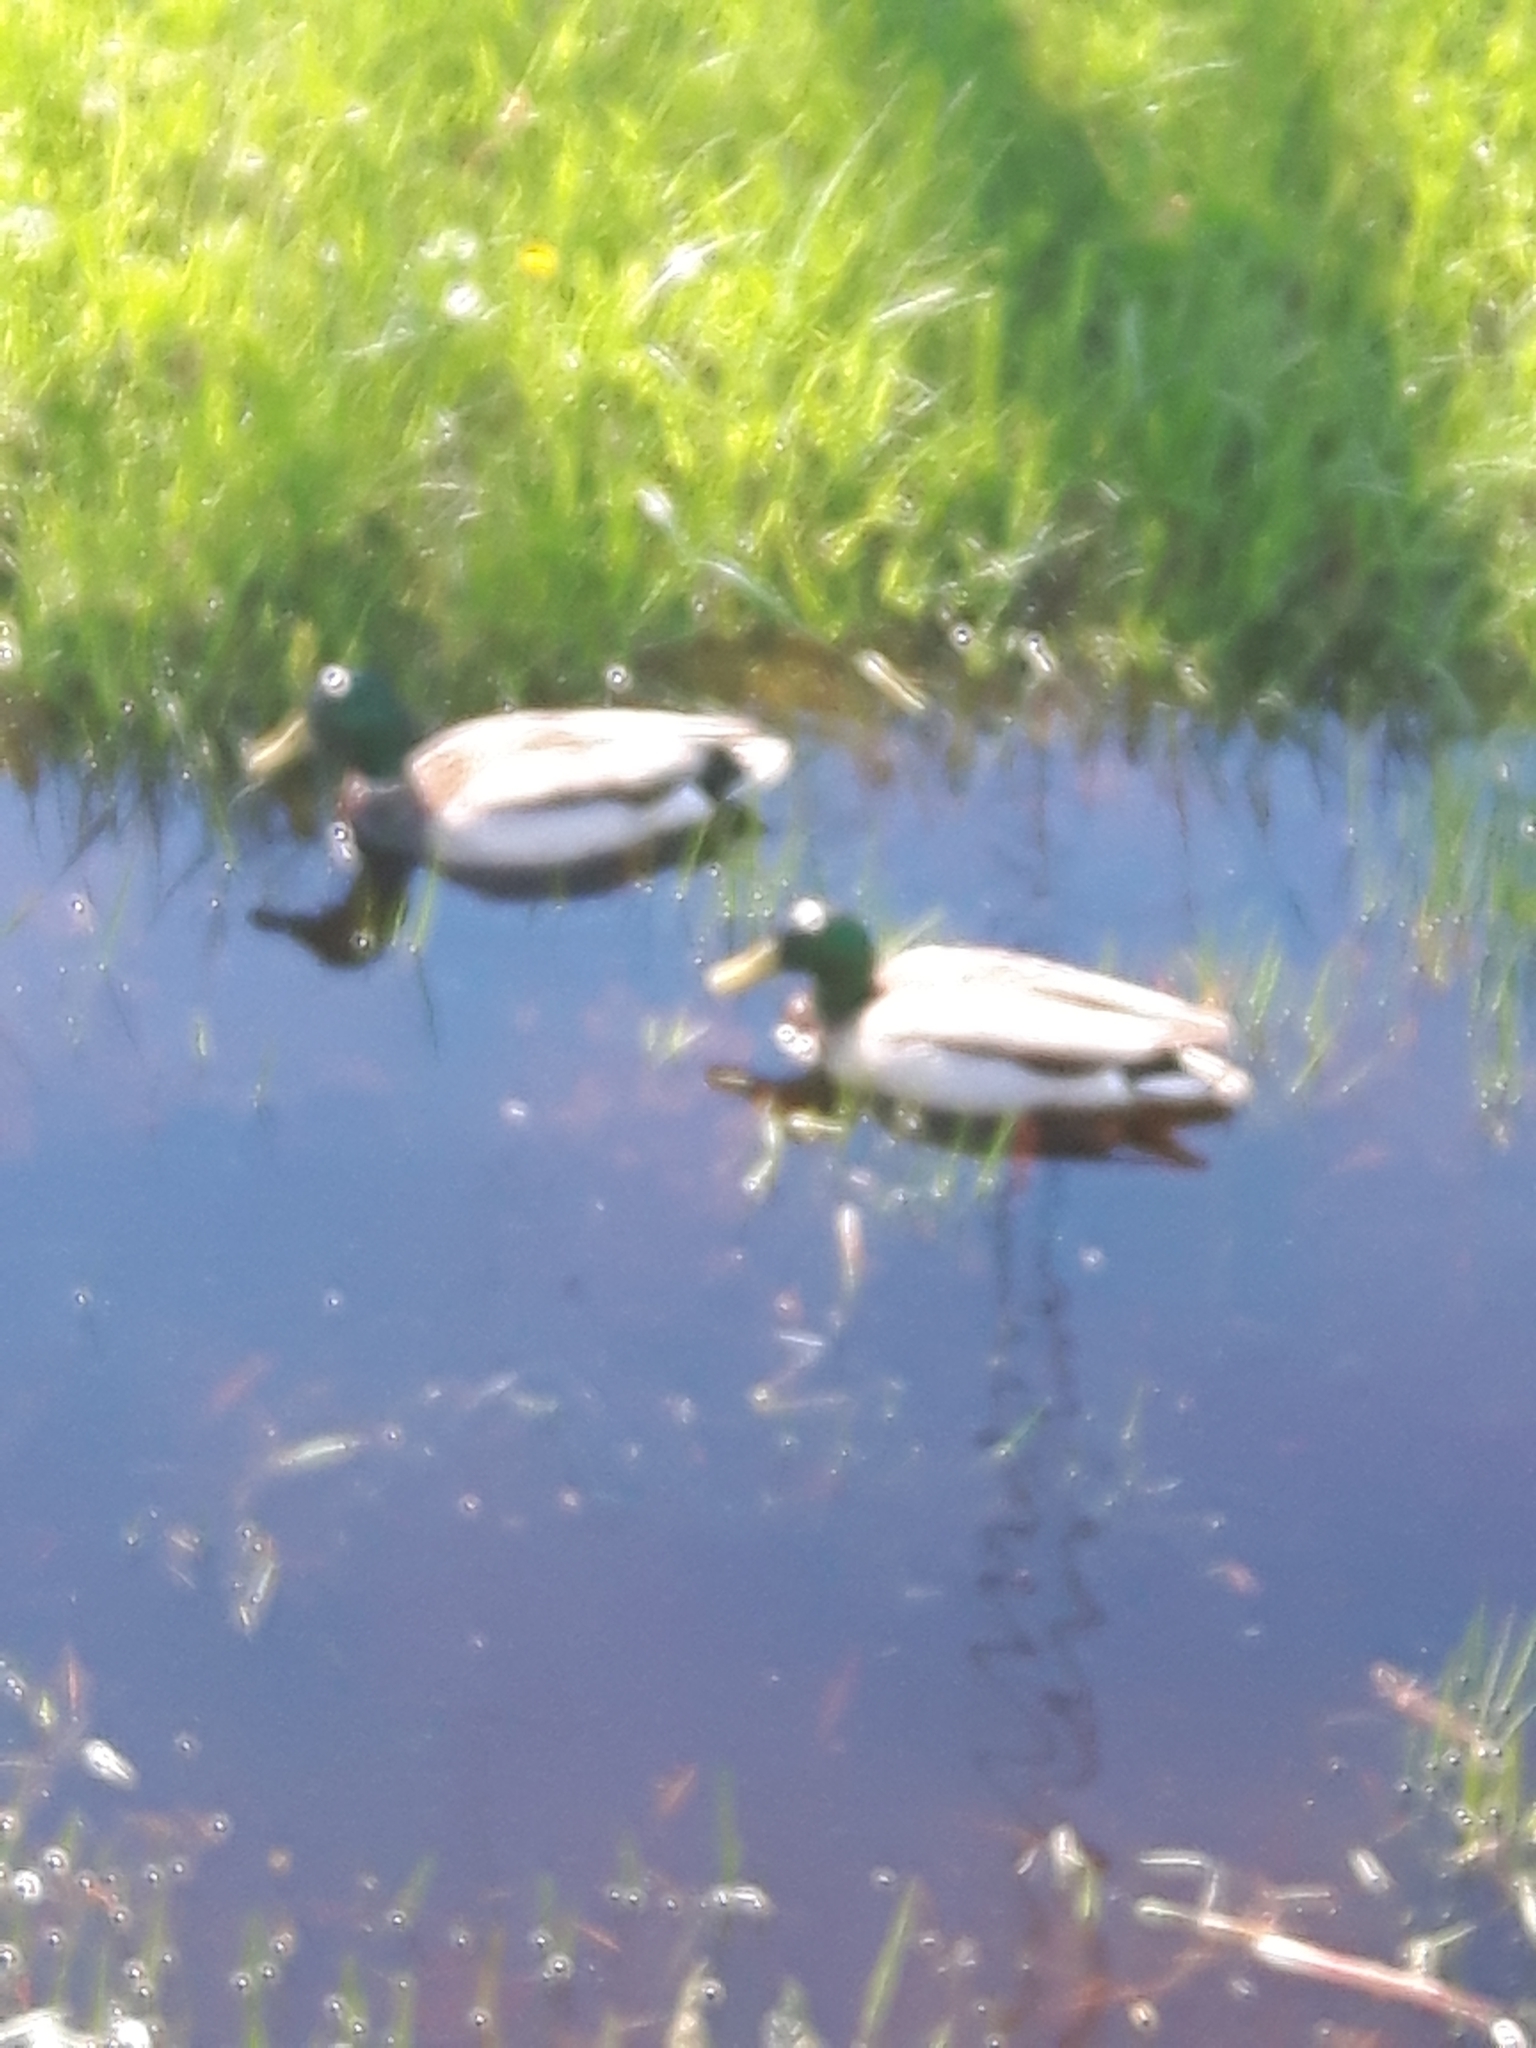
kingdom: Animalia
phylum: Chordata
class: Aves
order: Anseriformes
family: Anatidae
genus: Anas
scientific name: Anas platyrhynchos
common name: Mallard
